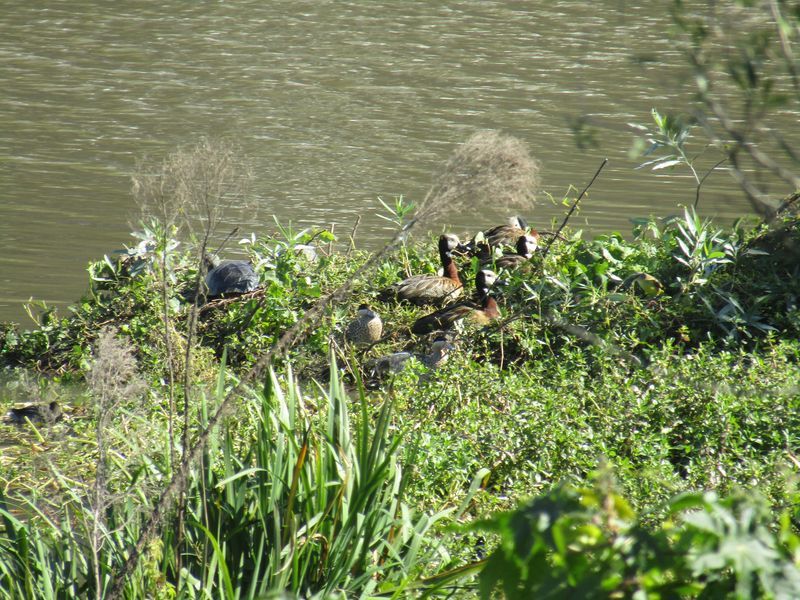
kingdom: Animalia
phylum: Chordata
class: Aves
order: Anseriformes
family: Anatidae
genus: Dendrocygna
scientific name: Dendrocygna viduata
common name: White-faced whistling duck
